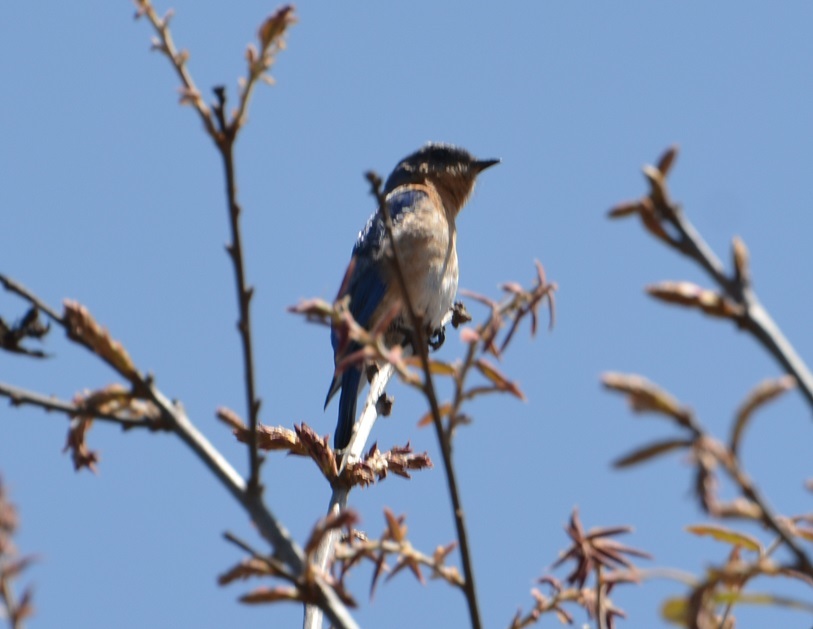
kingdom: Animalia
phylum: Chordata
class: Aves
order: Passeriformes
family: Turdidae
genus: Sialia
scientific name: Sialia sialis
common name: Eastern bluebird
